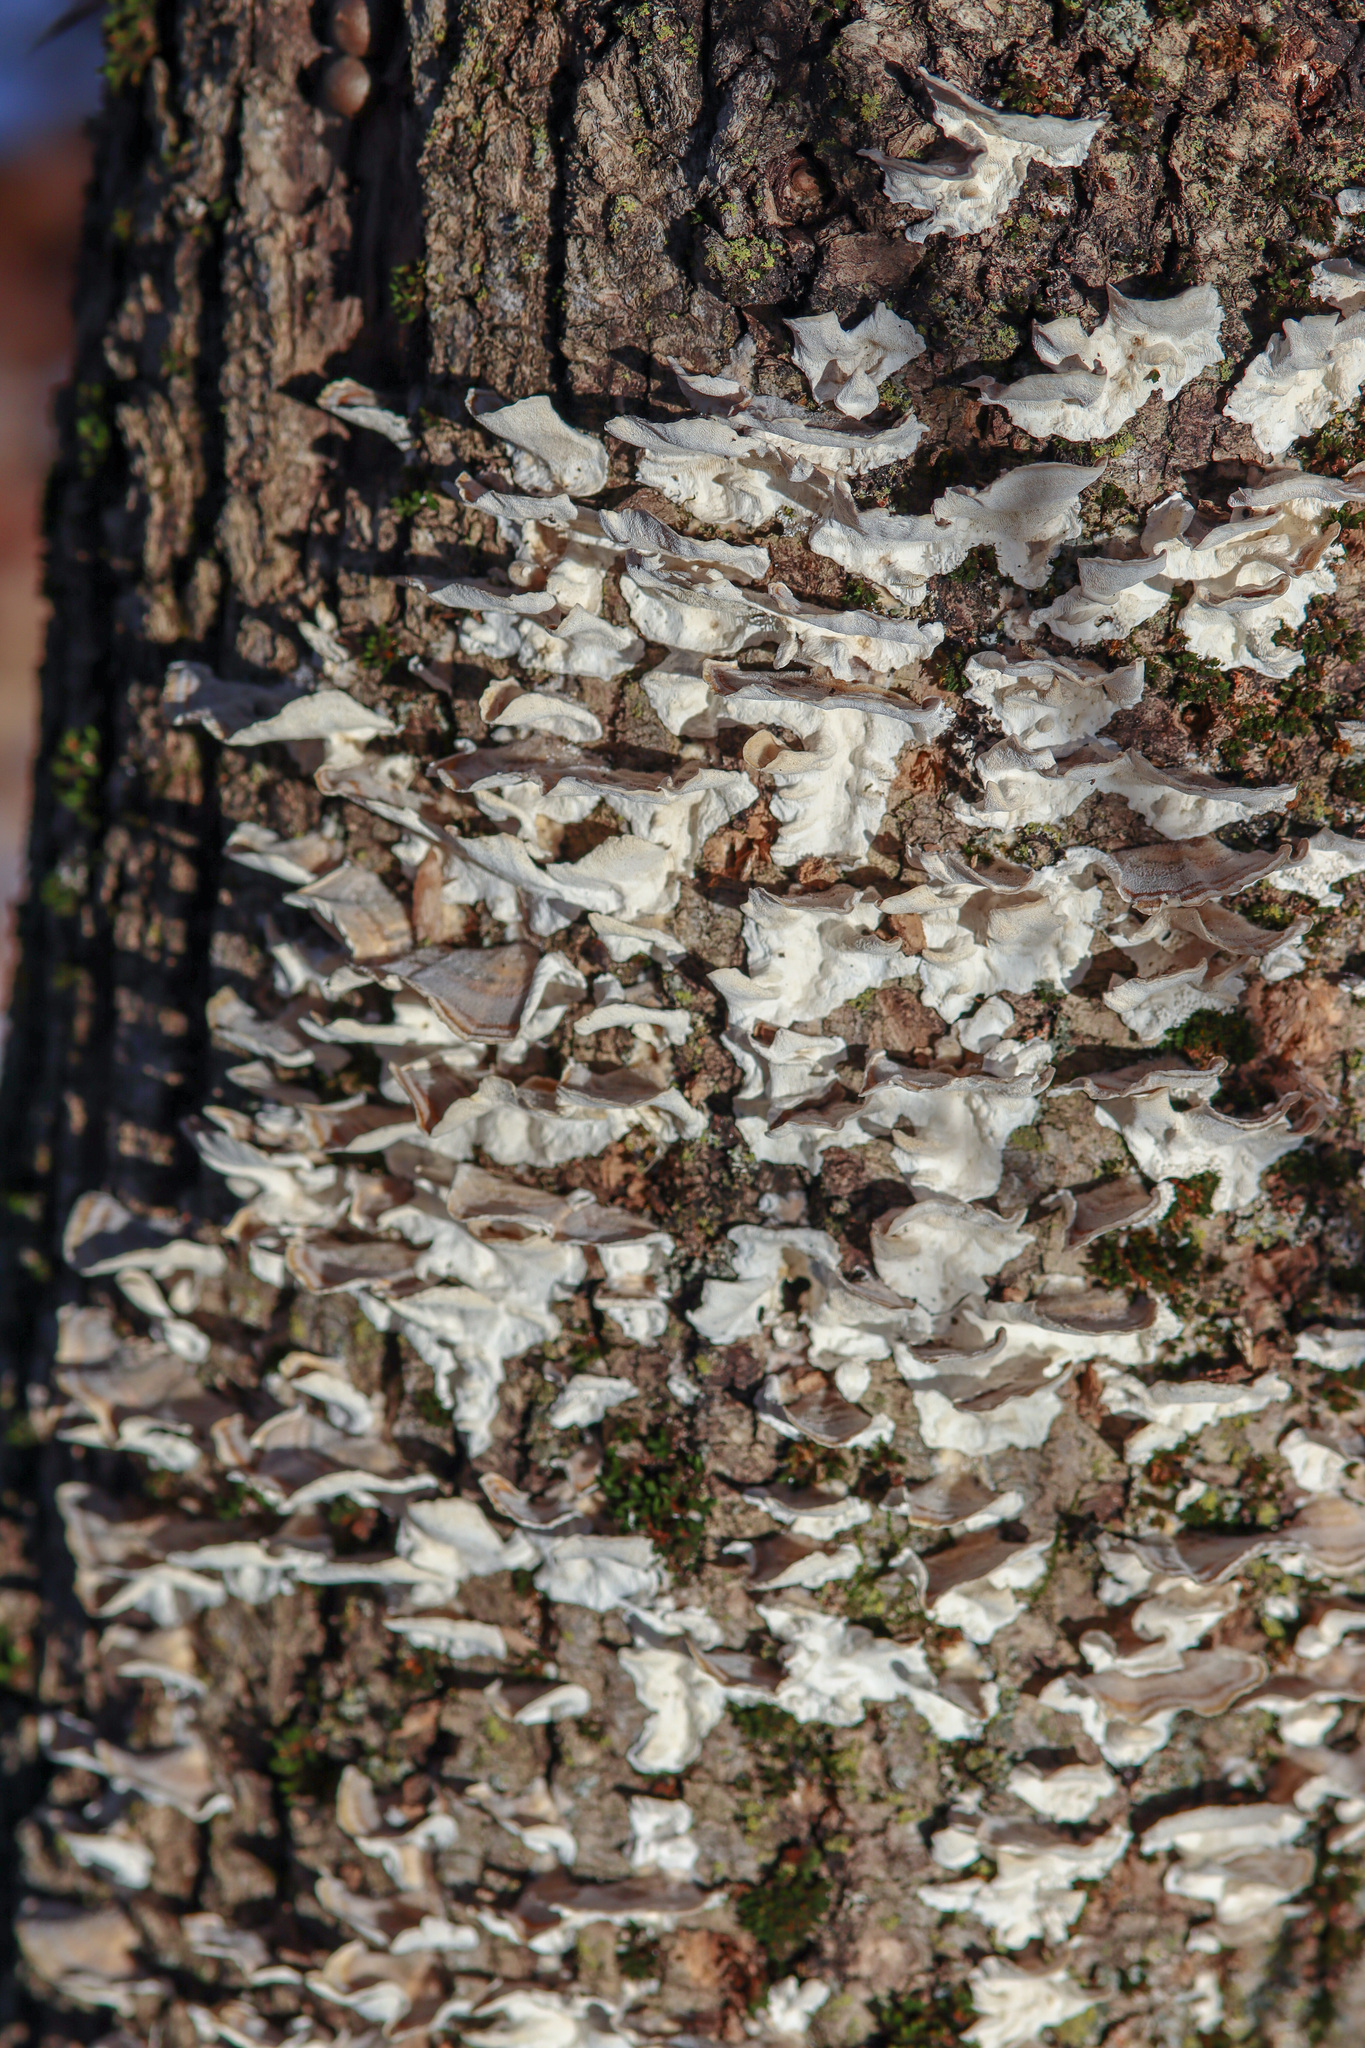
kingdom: Fungi
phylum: Basidiomycota
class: Agaricomycetes
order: Polyporales
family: Polyporaceae
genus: Trametes
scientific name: Trametes versicolor
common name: Turkeytail
